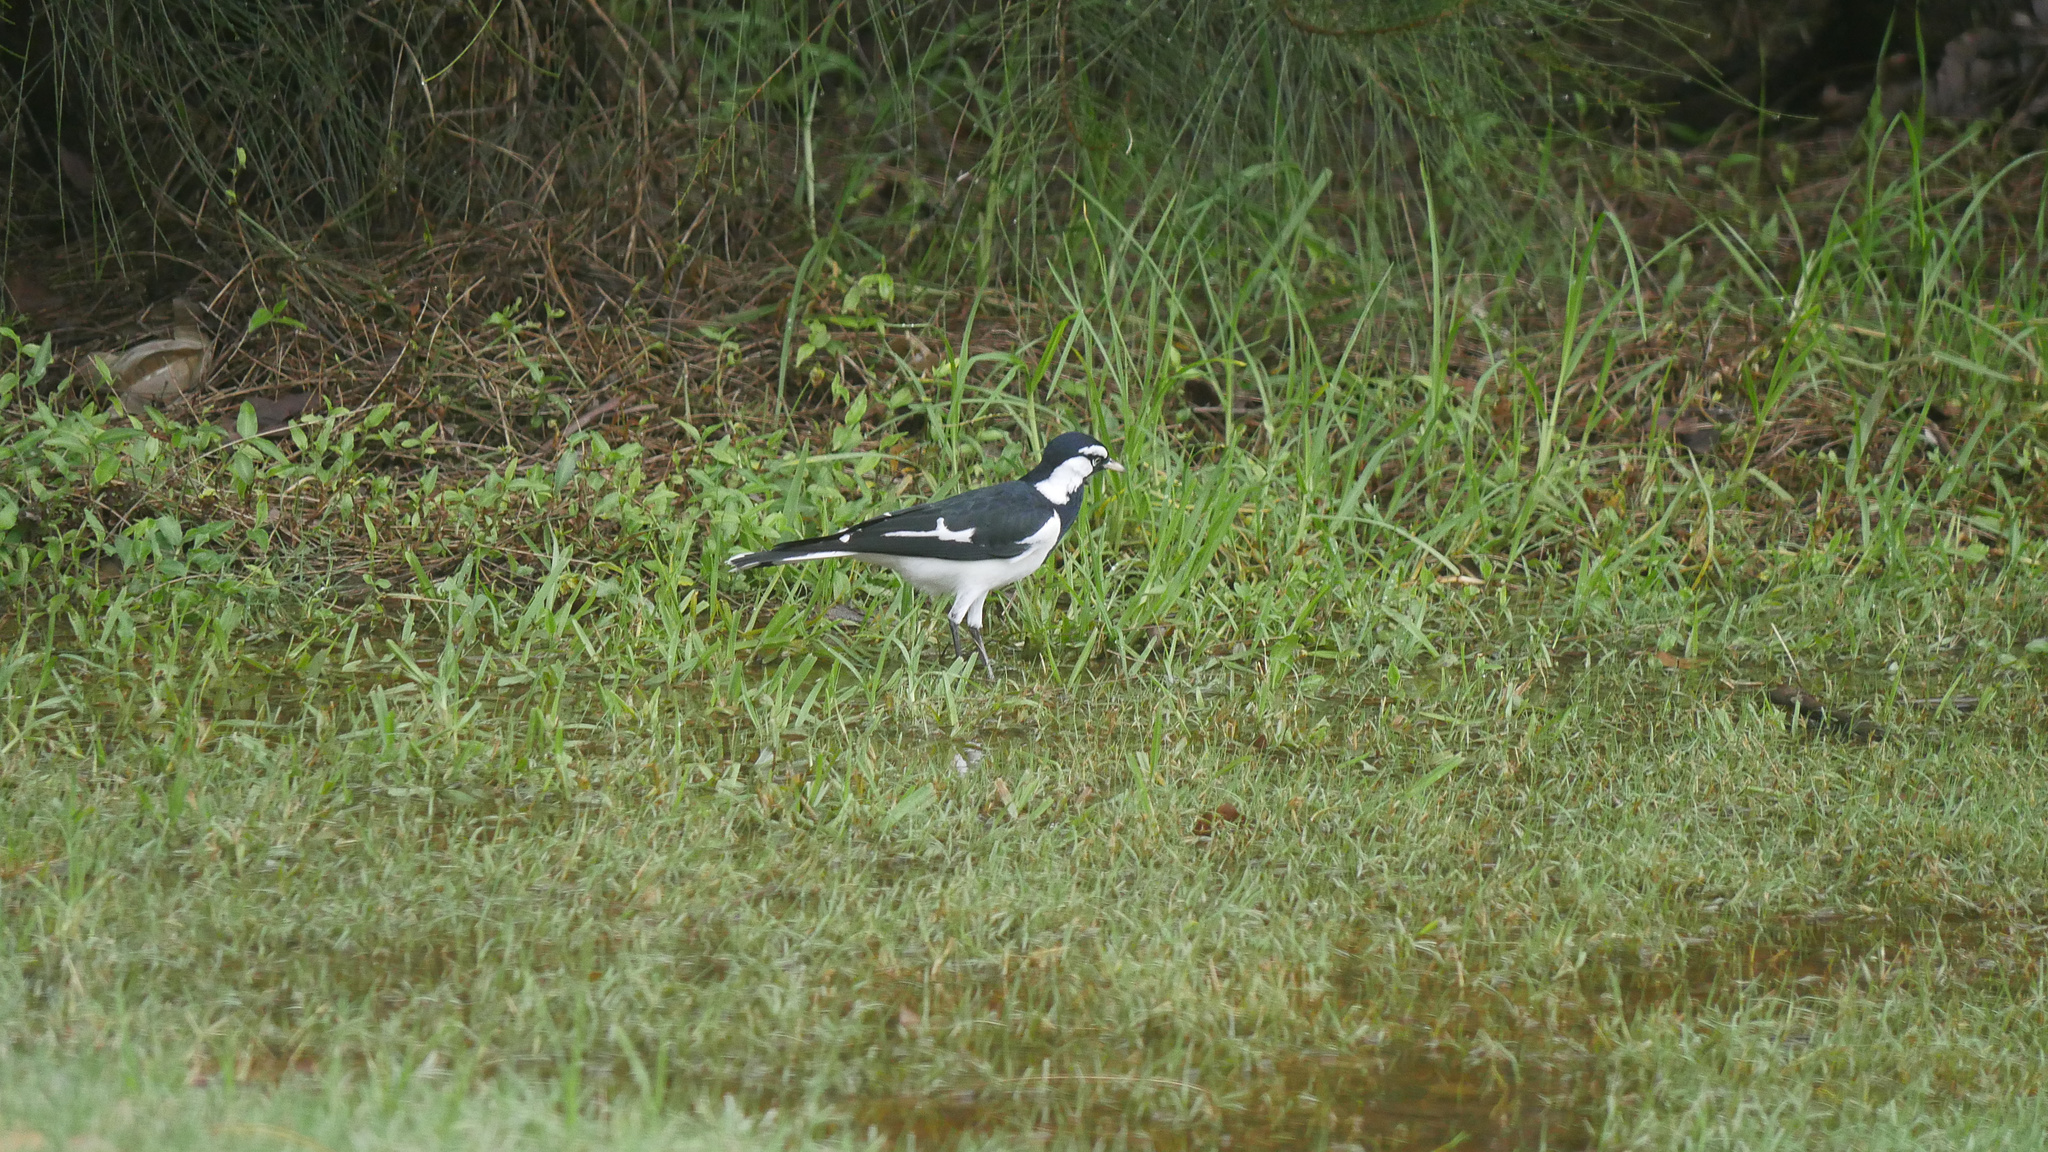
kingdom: Animalia
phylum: Chordata
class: Aves
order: Passeriformes
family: Monarchidae
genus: Grallina
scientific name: Grallina cyanoleuca
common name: Magpie-lark
